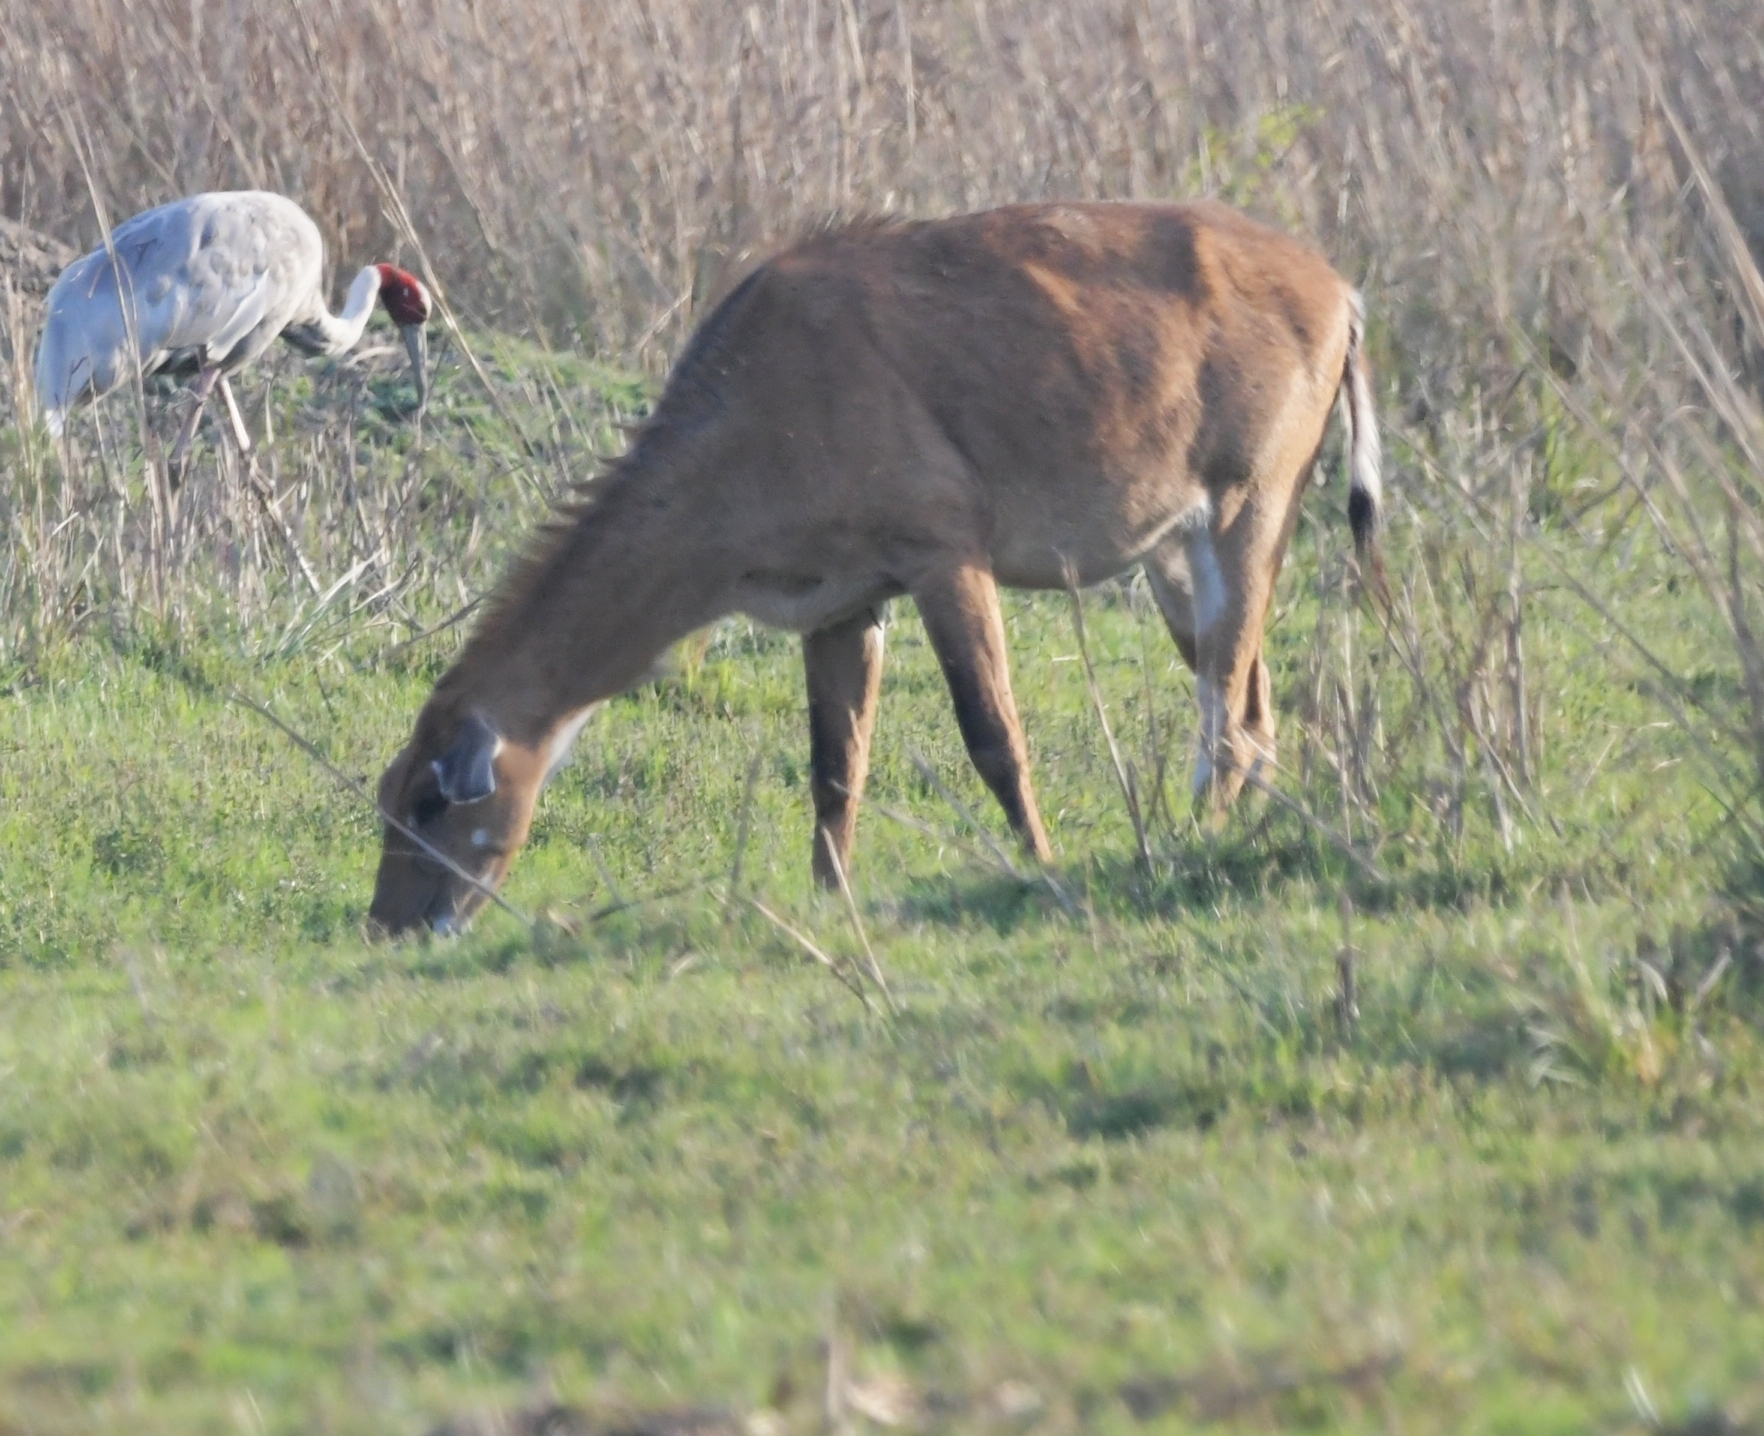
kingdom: Animalia
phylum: Chordata
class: Mammalia
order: Artiodactyla
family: Bovidae
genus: Boselaphus
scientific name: Boselaphus tragocamelus
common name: Nilgai
